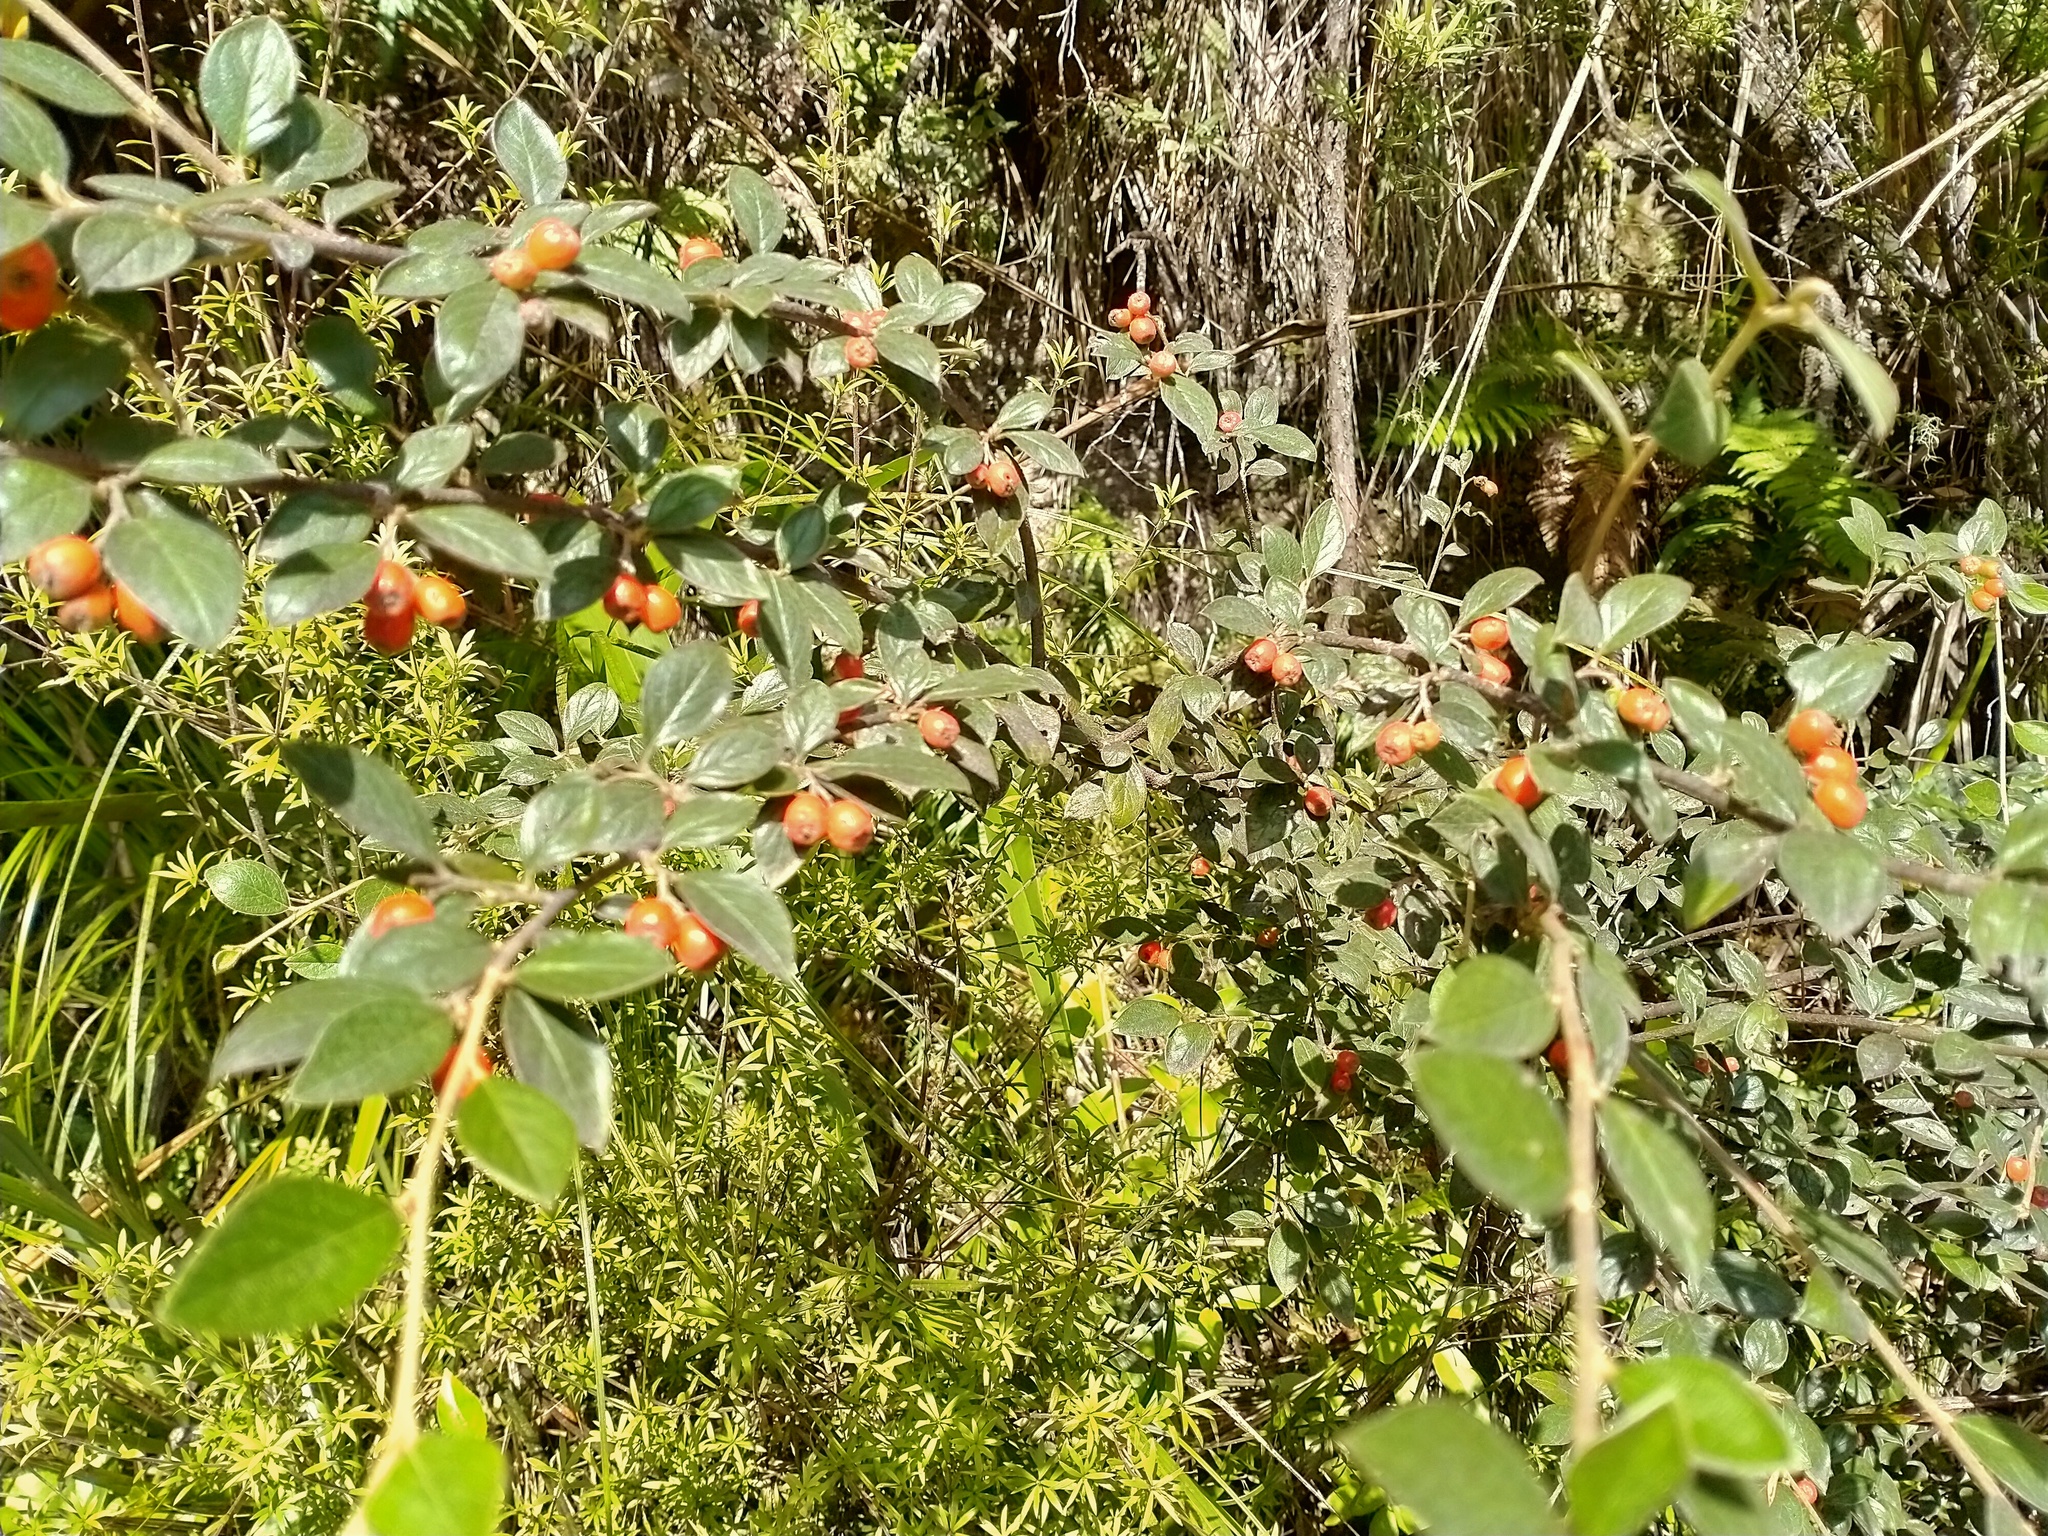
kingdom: Plantae
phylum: Tracheophyta
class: Magnoliopsida
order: Rosales
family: Rosaceae
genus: Cotoneaster
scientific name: Cotoneaster franchetii
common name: Franchet's cotoneaster
